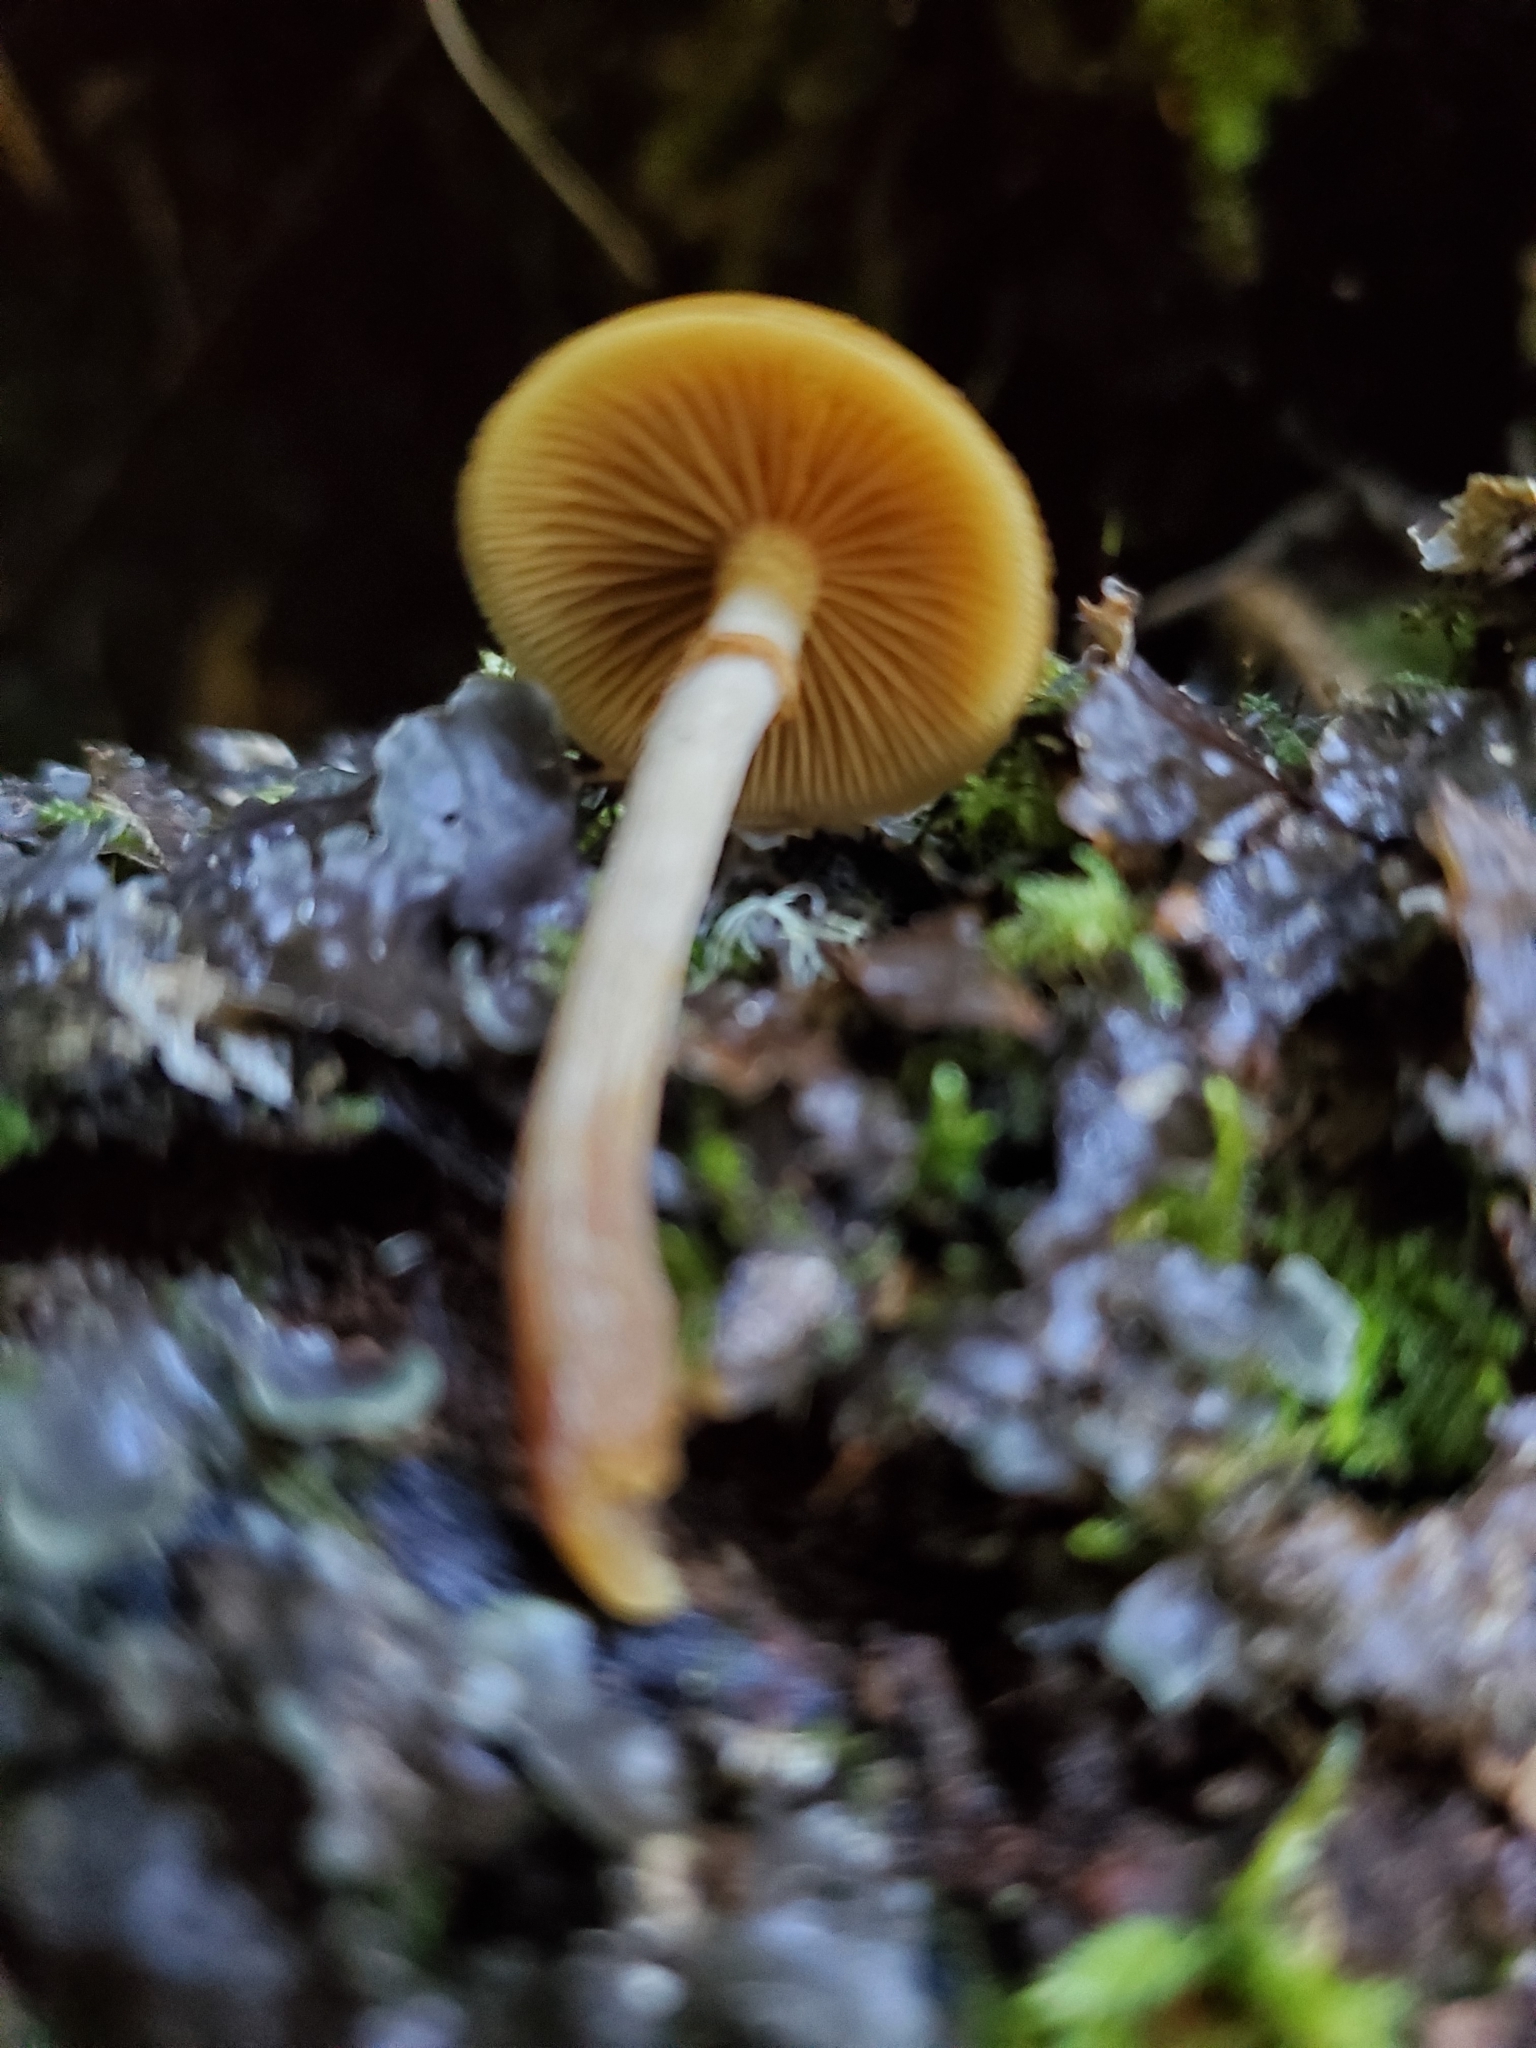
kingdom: Fungi
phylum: Basidiomycota
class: Agaricomycetes
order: Agaricales
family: Hymenogastraceae
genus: Galerina
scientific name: Galerina patagonica
